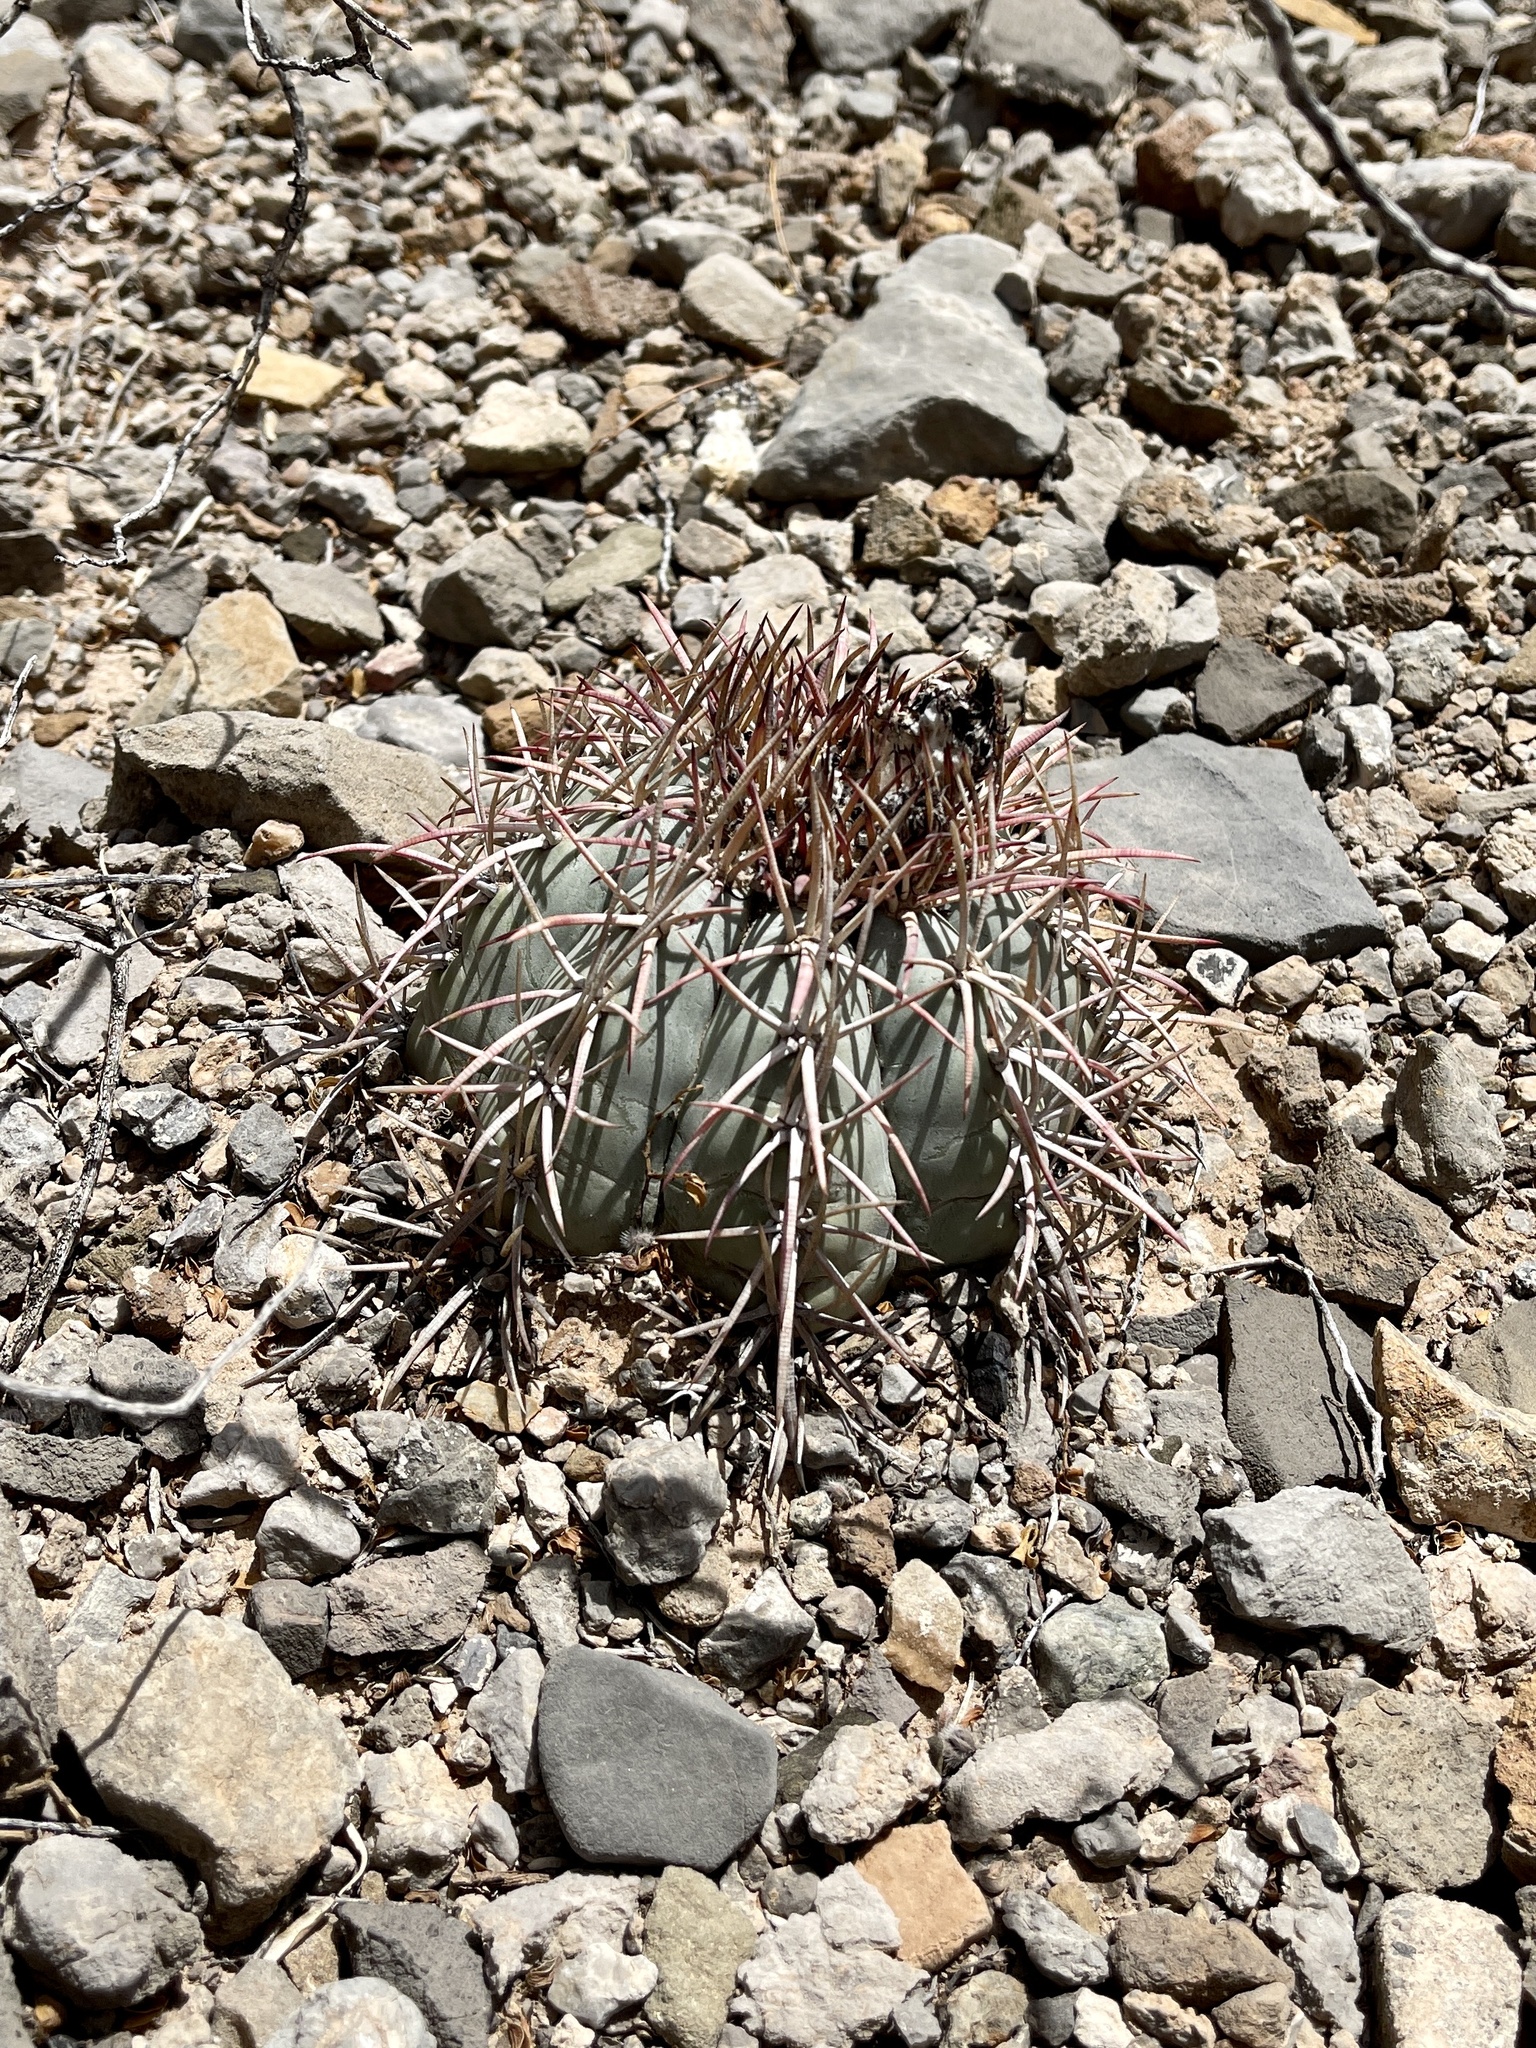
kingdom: Plantae
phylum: Tracheophyta
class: Magnoliopsida
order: Caryophyllales
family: Cactaceae
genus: Echinocactus
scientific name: Echinocactus horizonthalonius
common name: Devilshead
